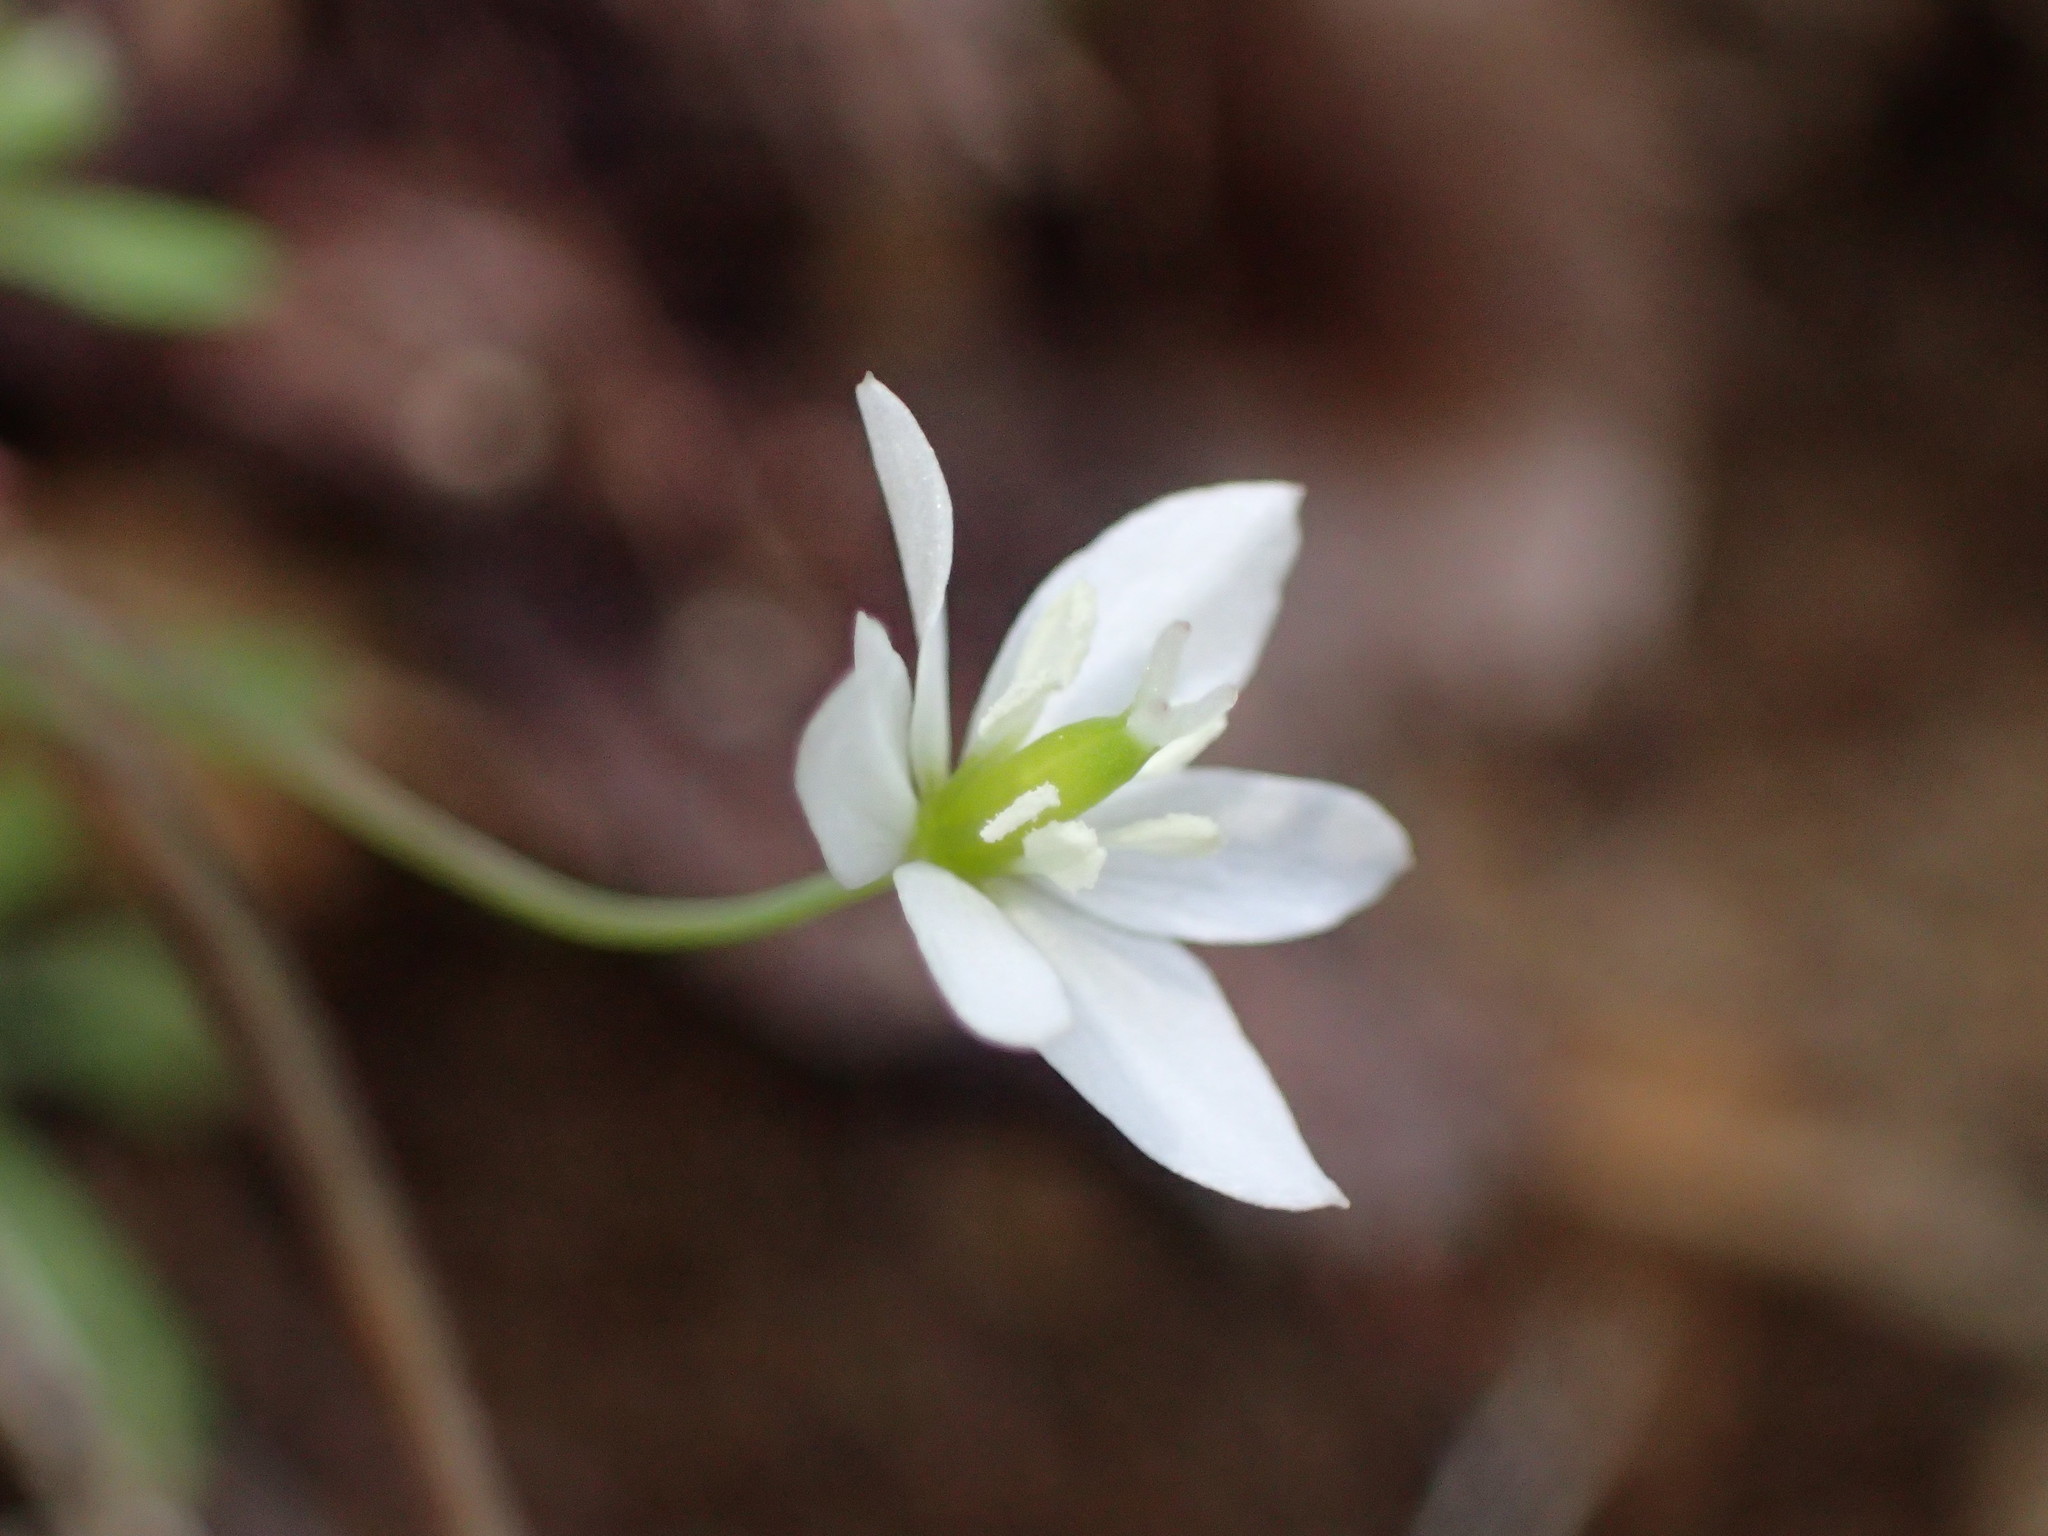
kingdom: Plantae
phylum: Tracheophyta
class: Magnoliopsida
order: Ranunculales
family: Papaveraceae
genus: Meconella
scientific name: Meconella denticulata
